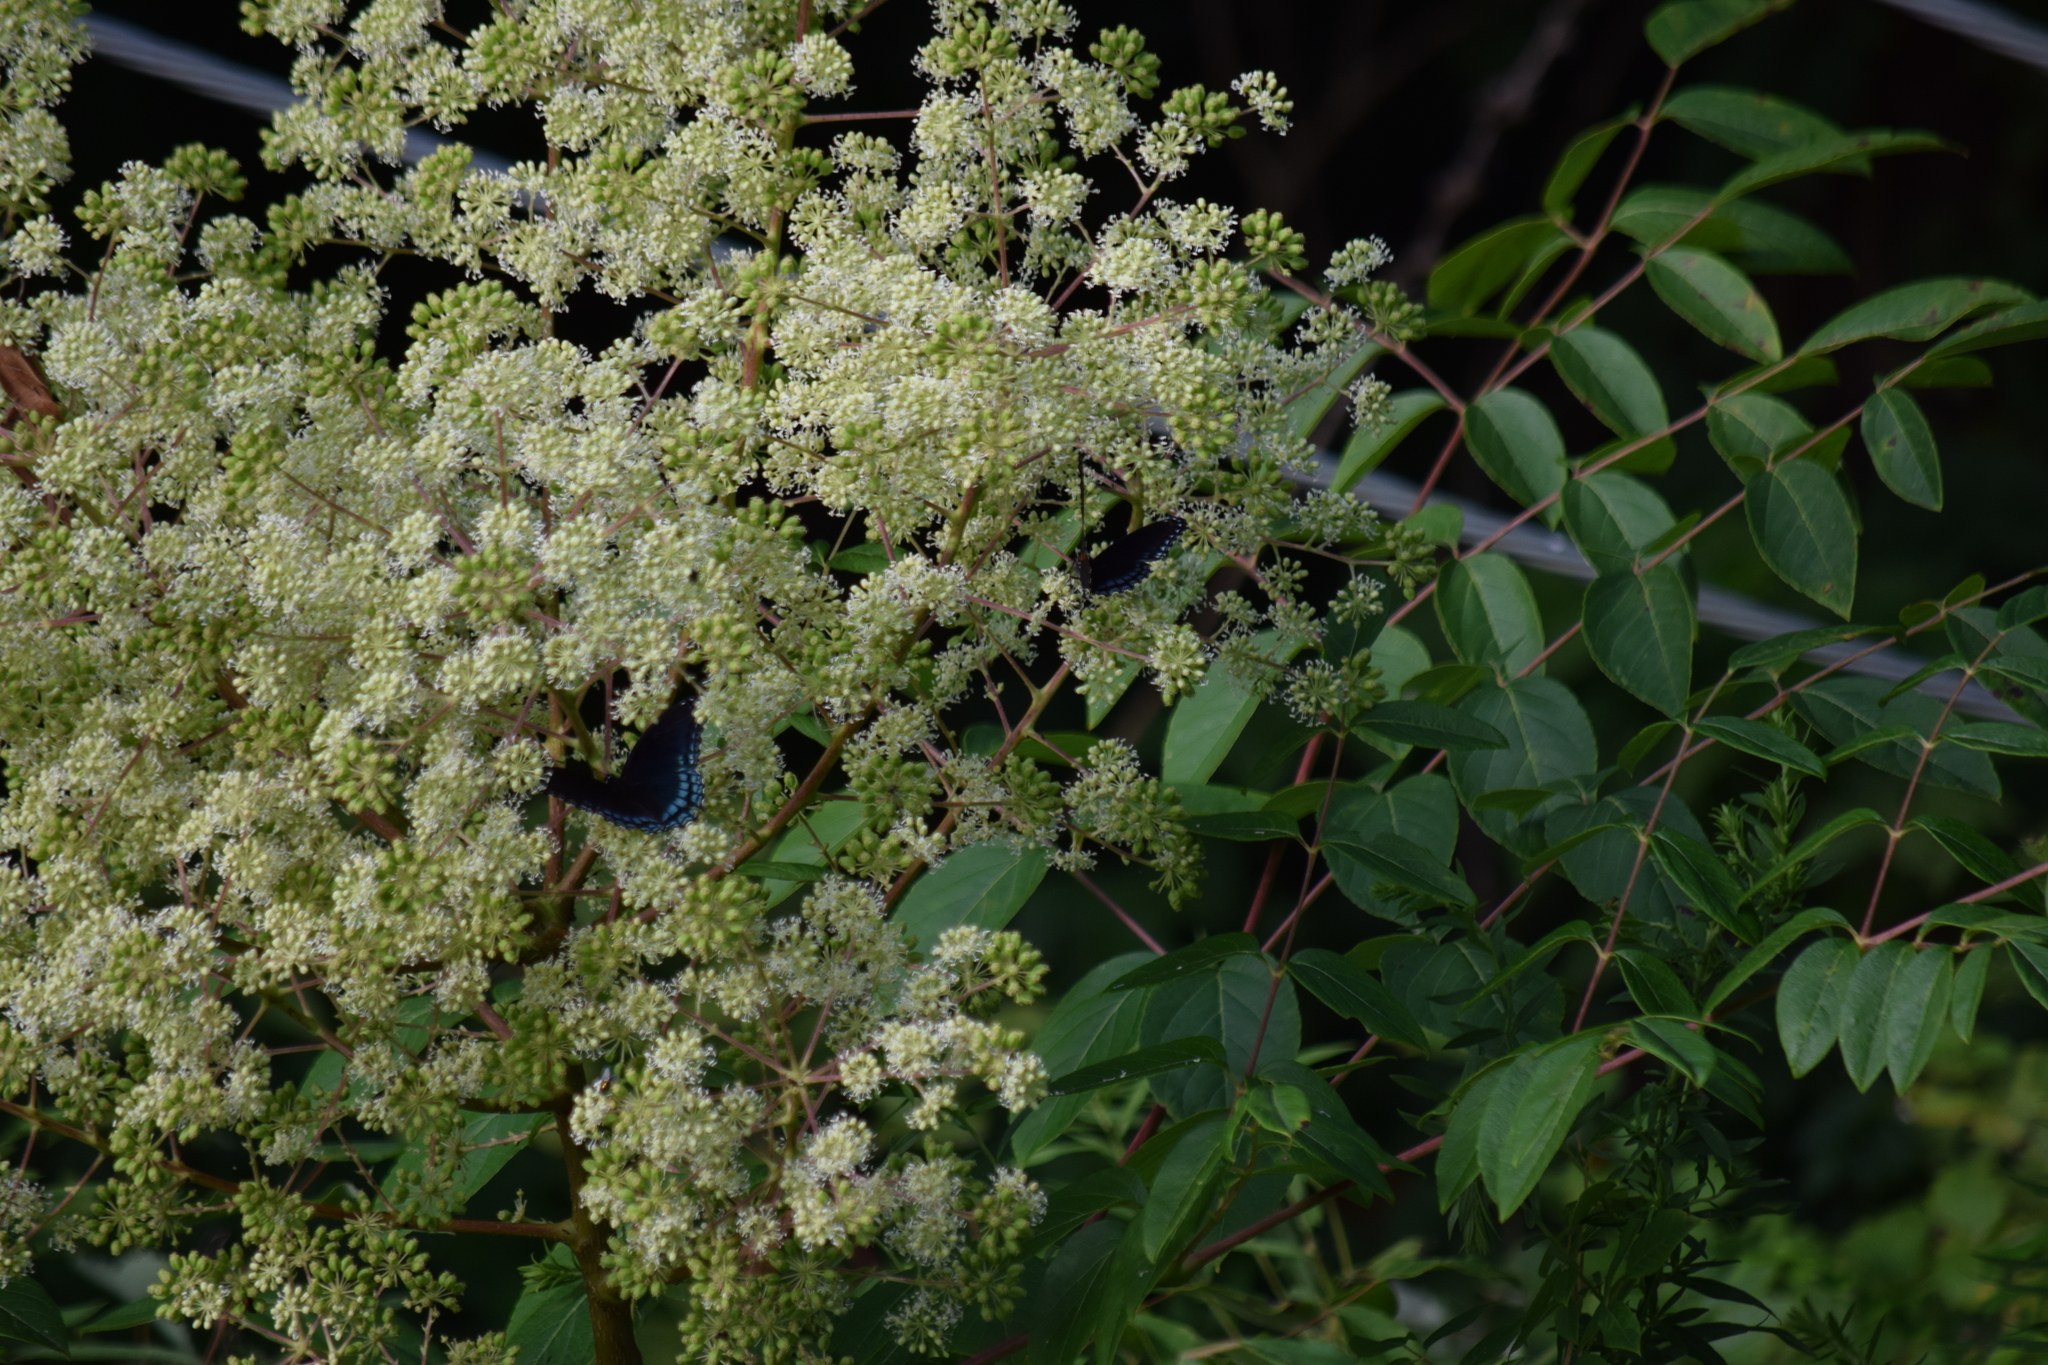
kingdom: Animalia
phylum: Arthropoda
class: Insecta
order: Lepidoptera
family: Nymphalidae
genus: Limenitis
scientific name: Limenitis astyanax
